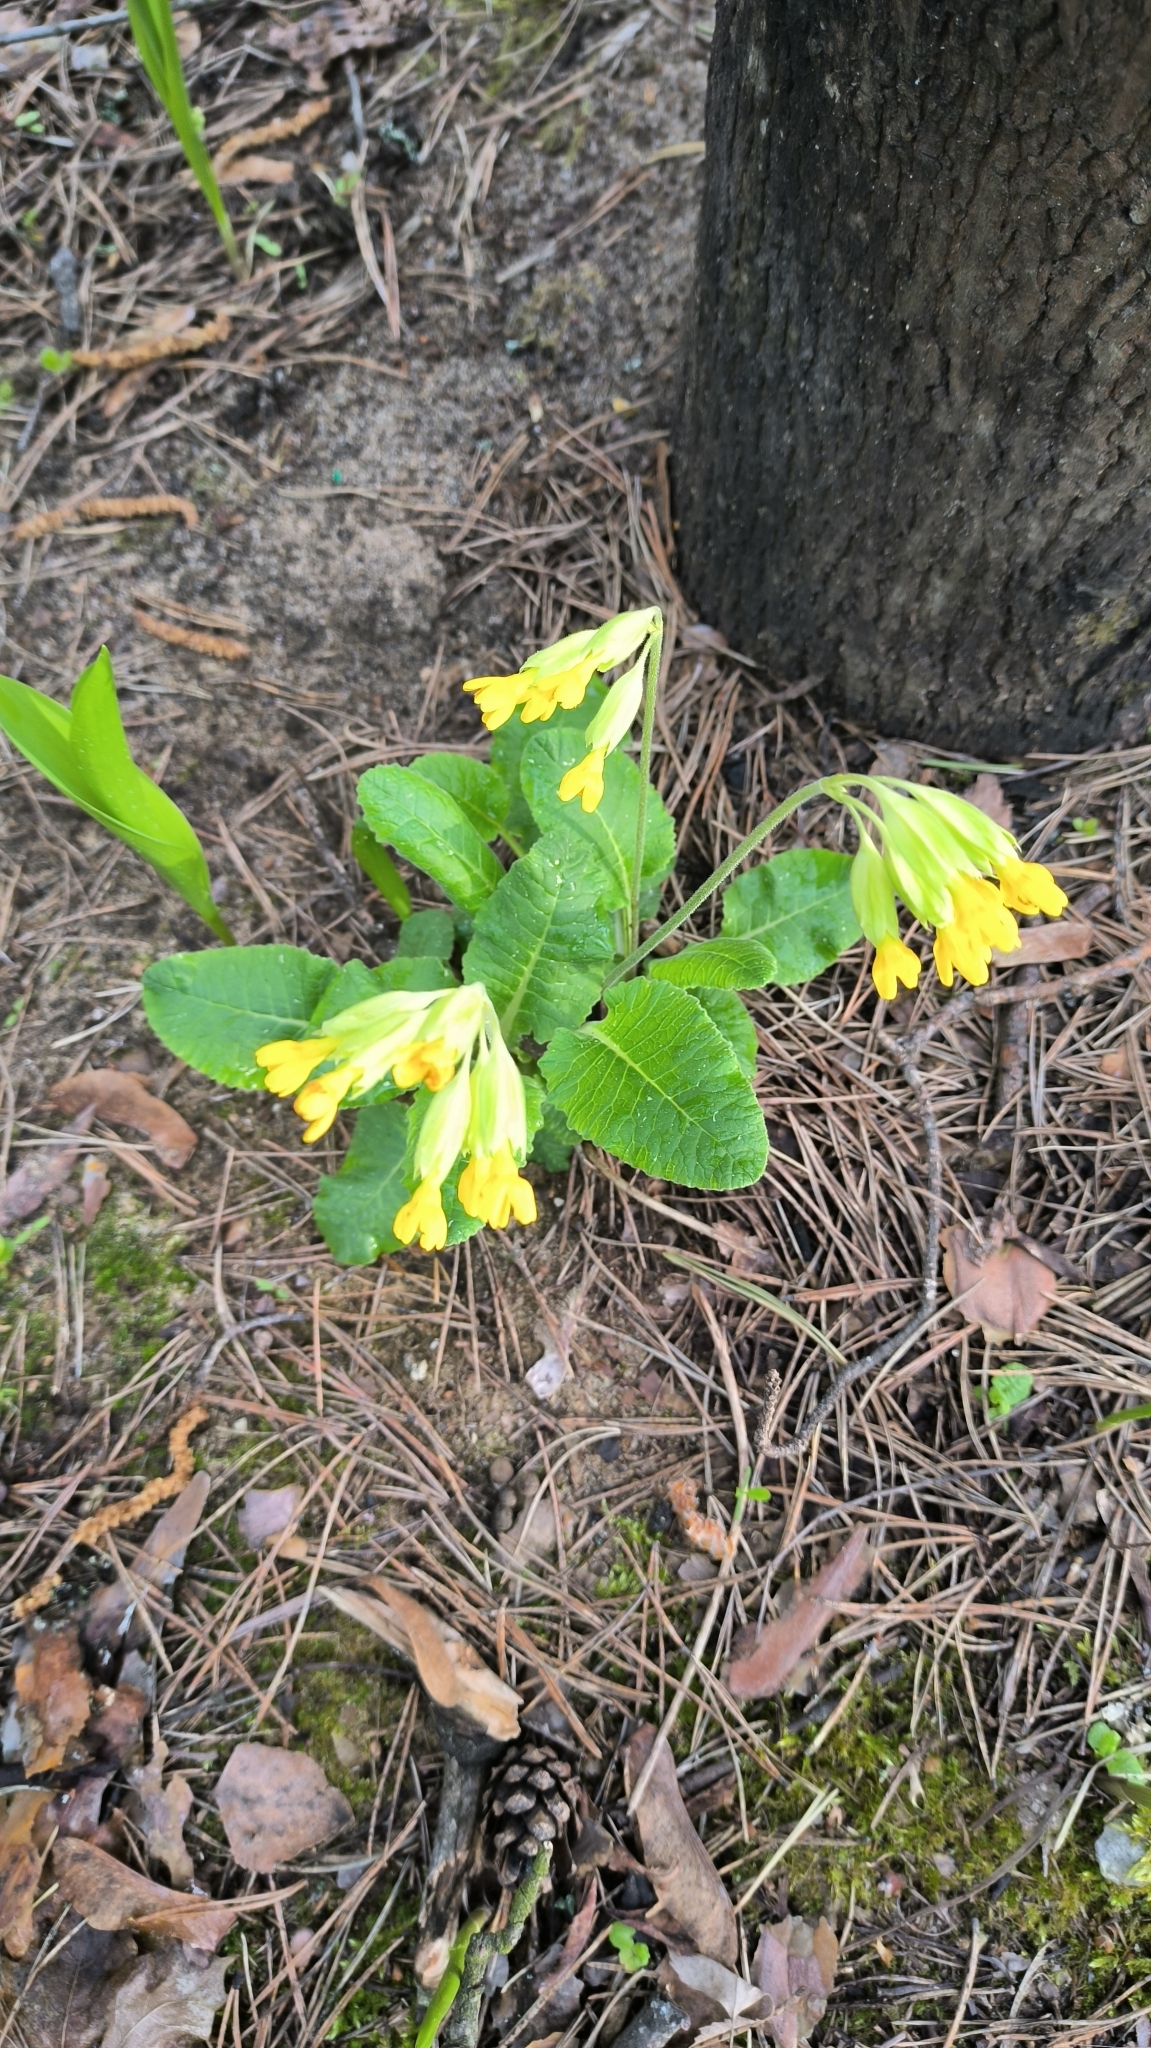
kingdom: Plantae
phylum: Tracheophyta
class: Magnoliopsida
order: Ericales
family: Primulaceae
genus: Primula
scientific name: Primula veris
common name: Cowslip
